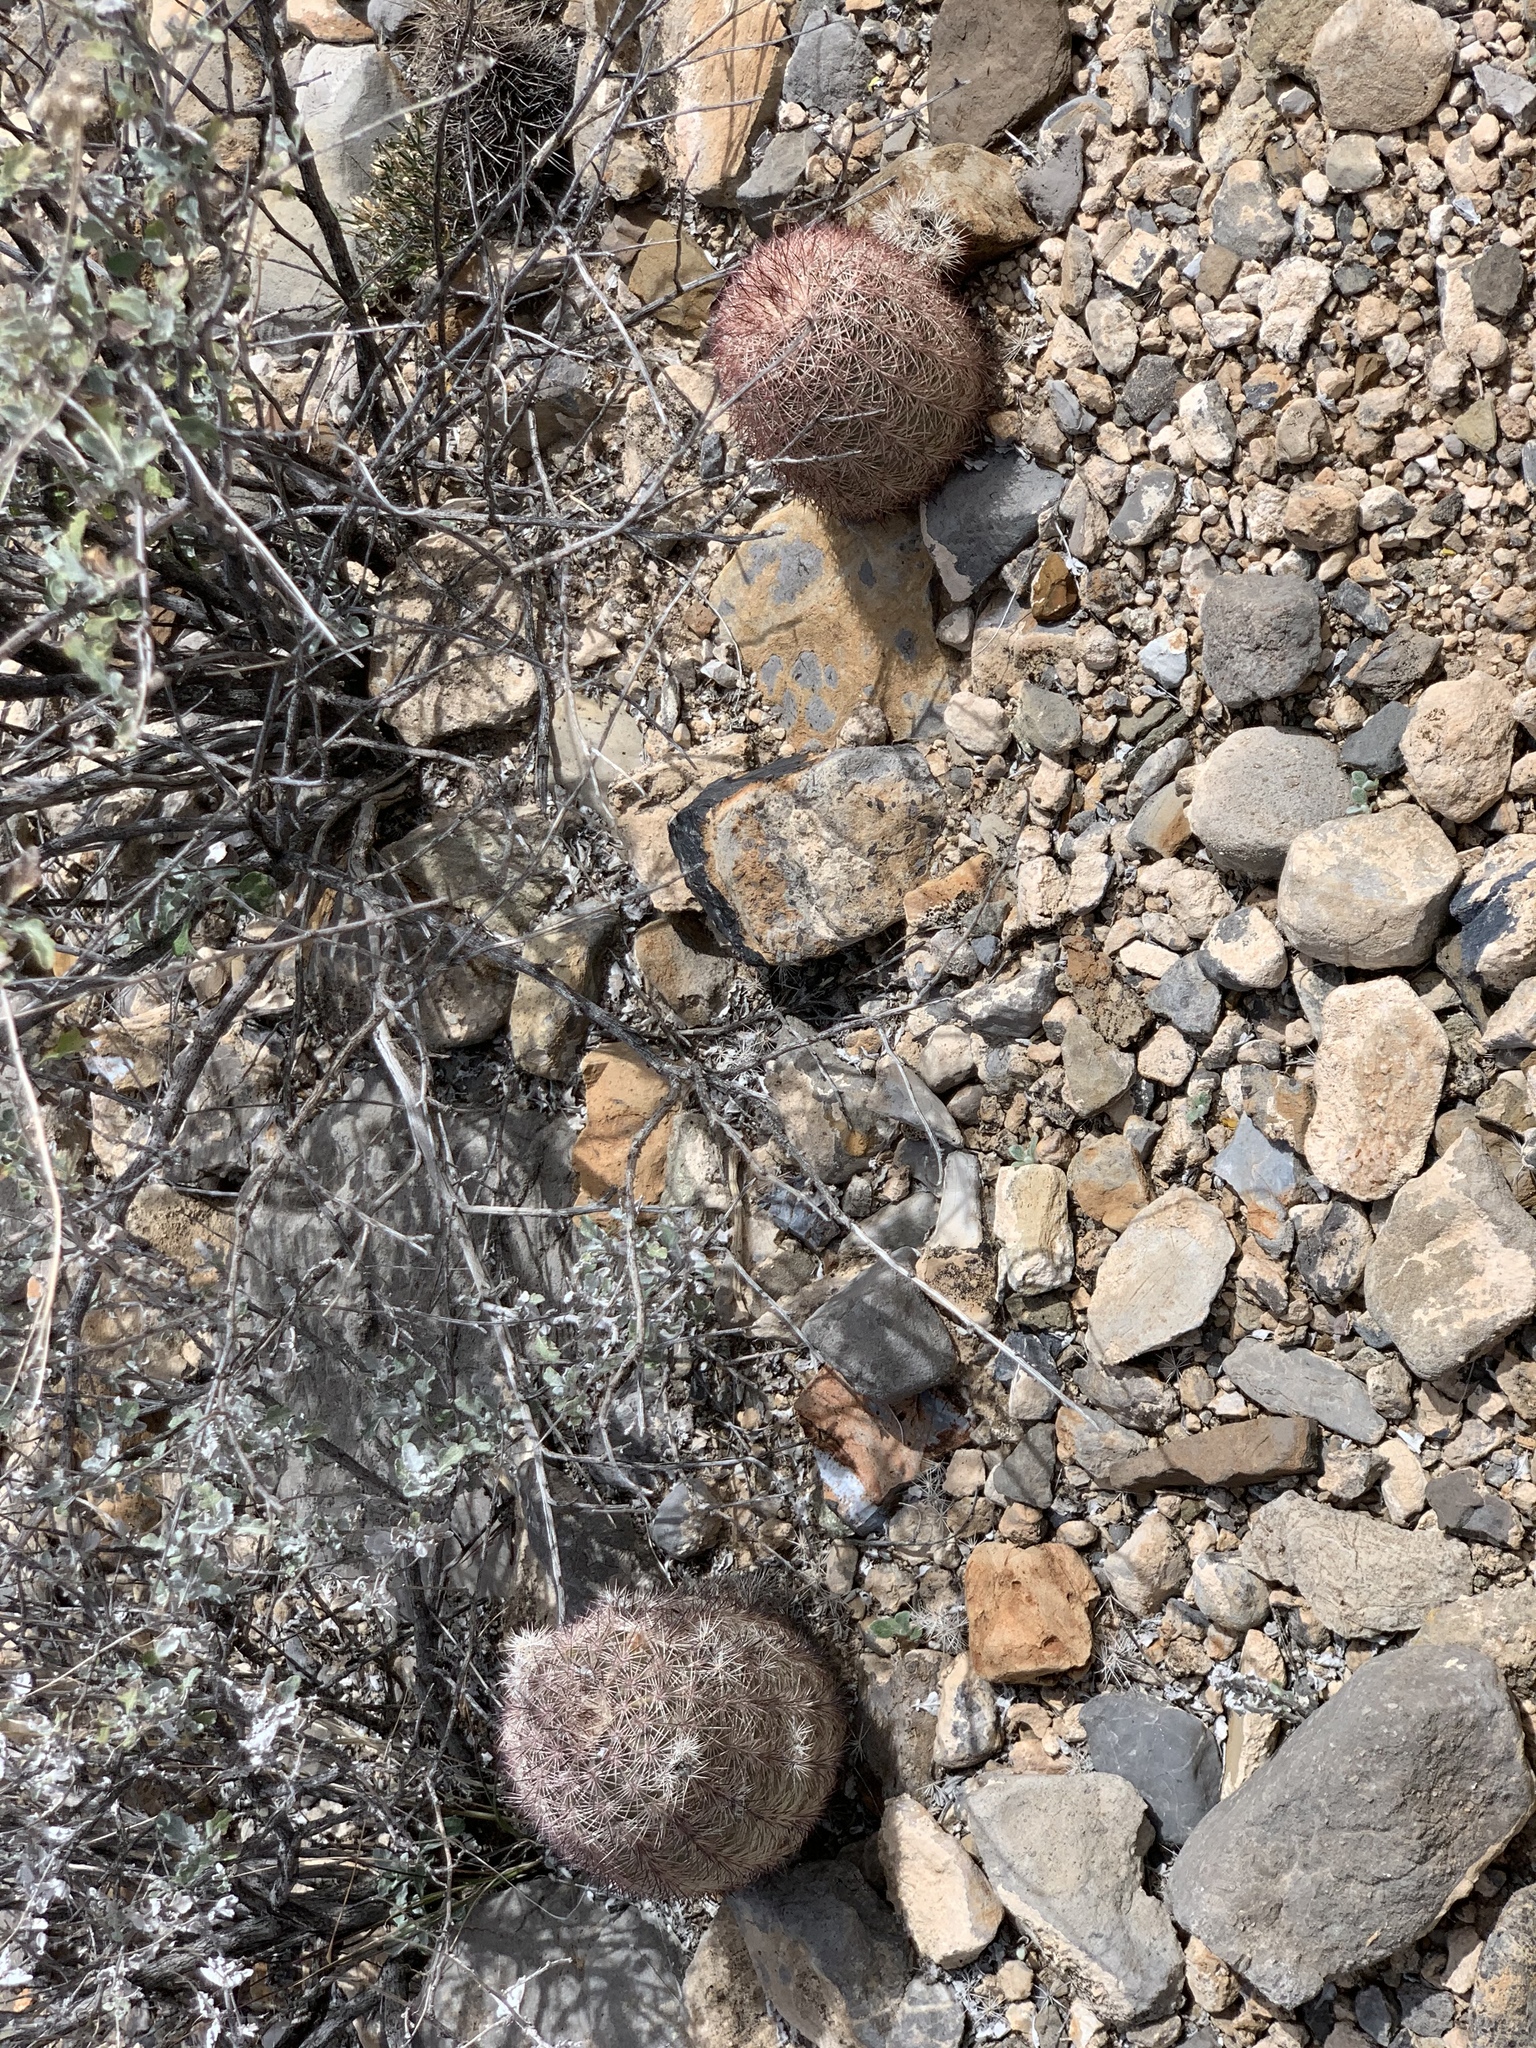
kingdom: Plantae
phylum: Tracheophyta
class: Magnoliopsida
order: Caryophyllales
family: Cactaceae
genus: Echinocereus
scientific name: Echinocereus dasyacanthus
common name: Spiny hedgehog cactus
